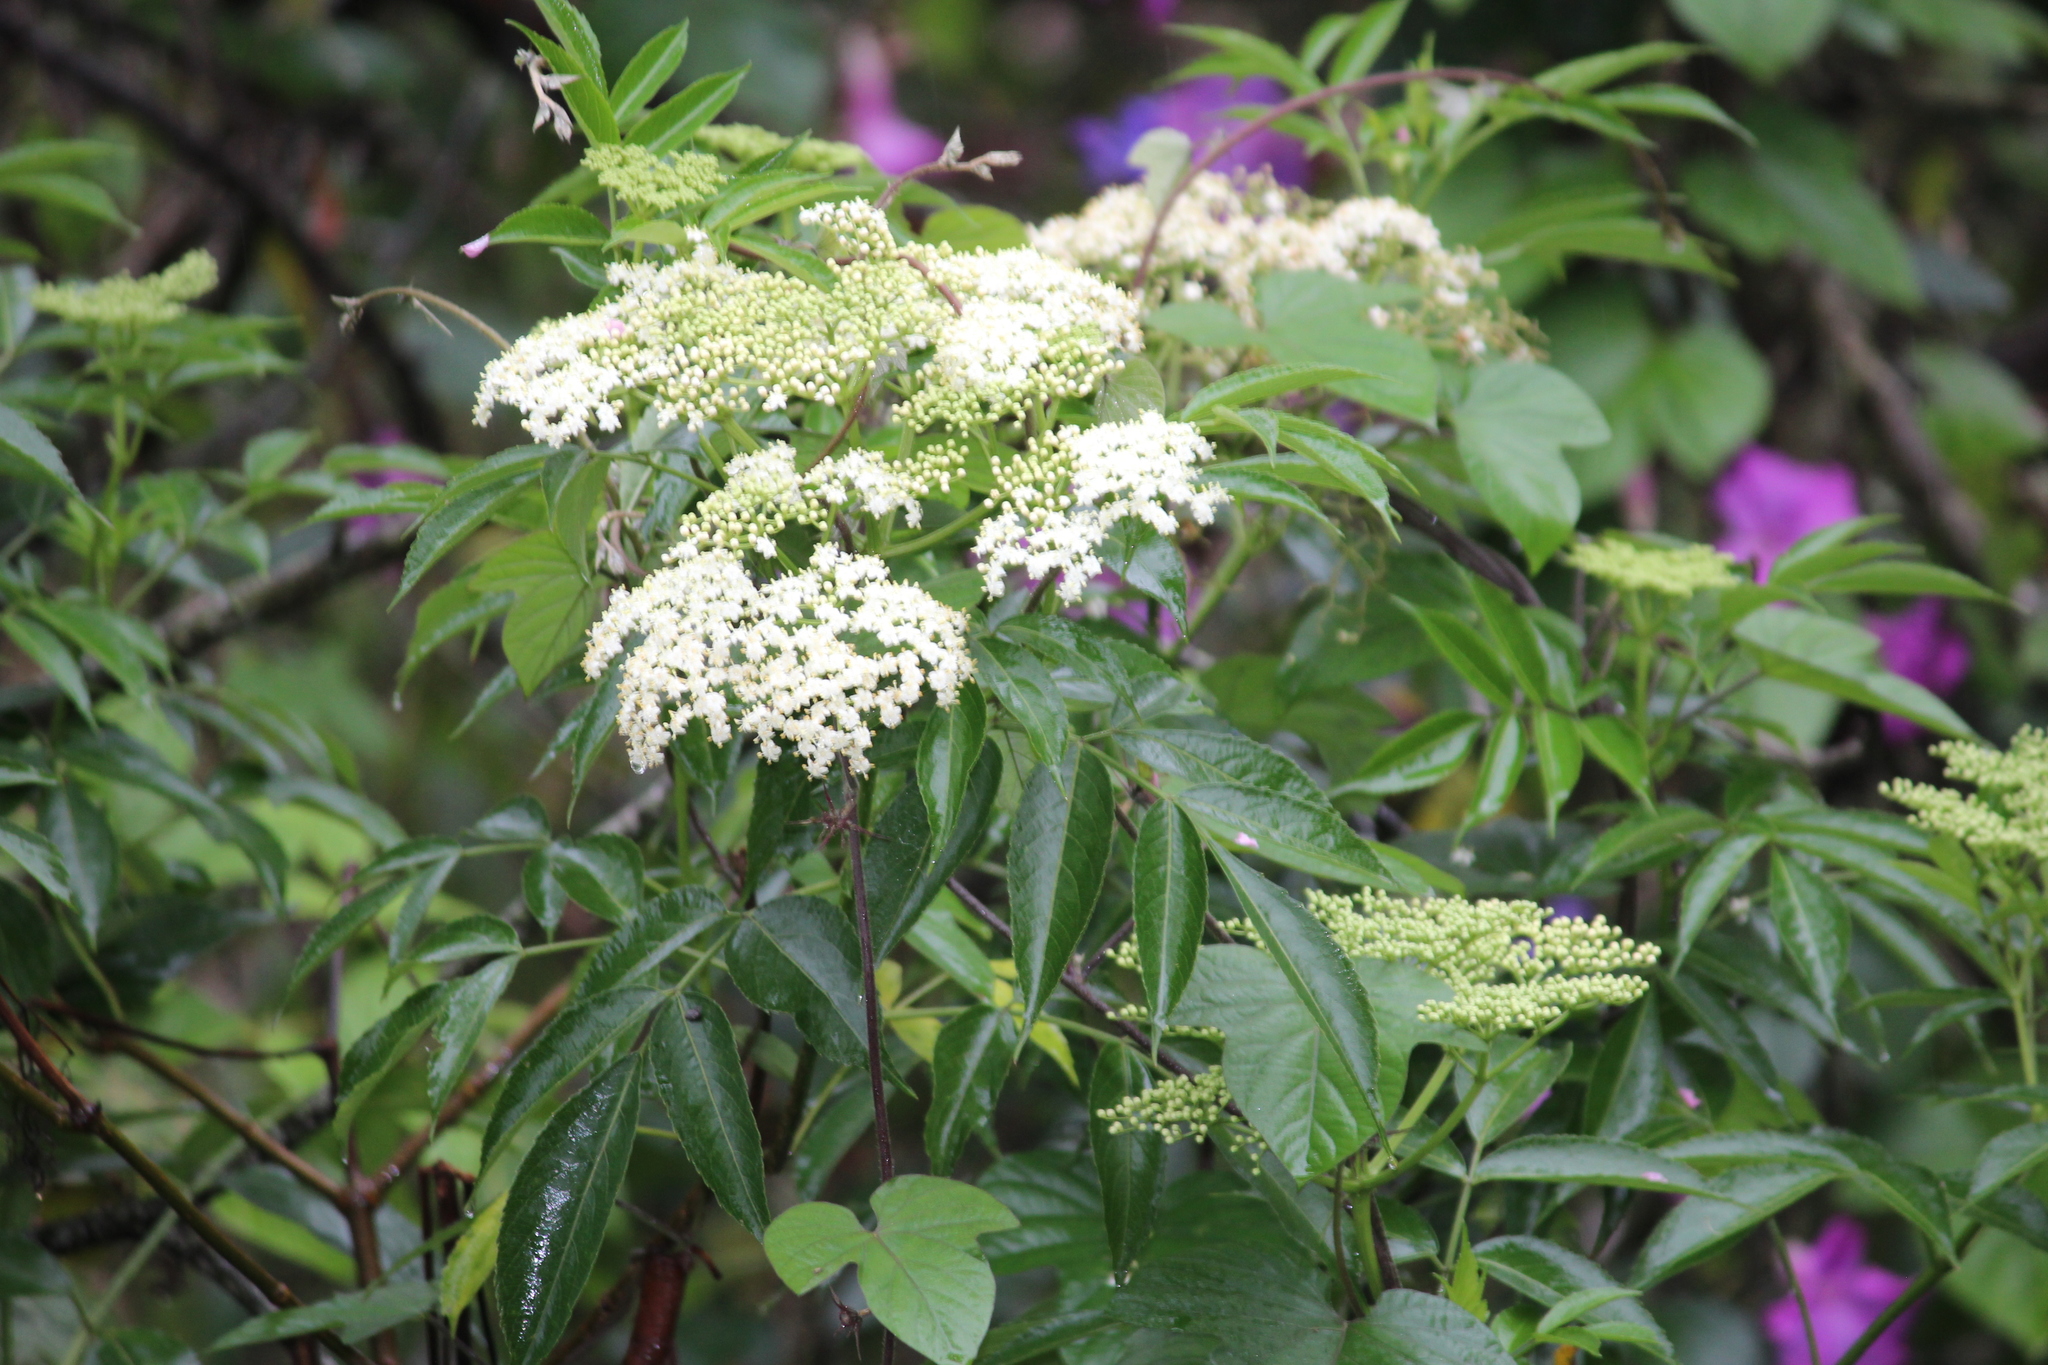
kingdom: Plantae
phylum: Tracheophyta
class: Magnoliopsida
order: Dipsacales
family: Viburnaceae
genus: Sambucus
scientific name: Sambucus nigra
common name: Elder
